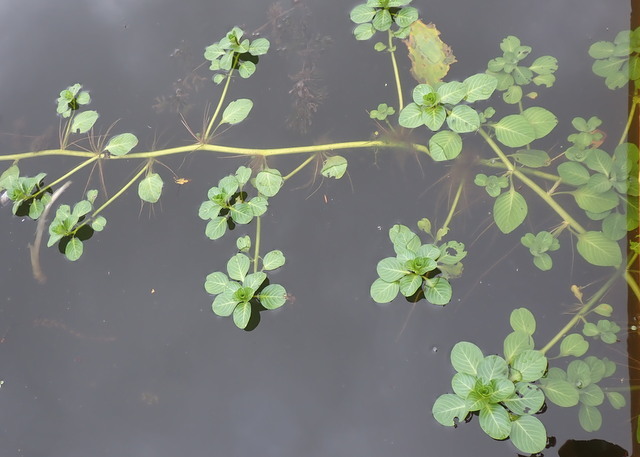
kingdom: Plantae
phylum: Tracheophyta
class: Magnoliopsida
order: Myrtales
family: Onagraceae
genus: Ludwigia
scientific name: Ludwigia peploides
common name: Floating primrose-willow
